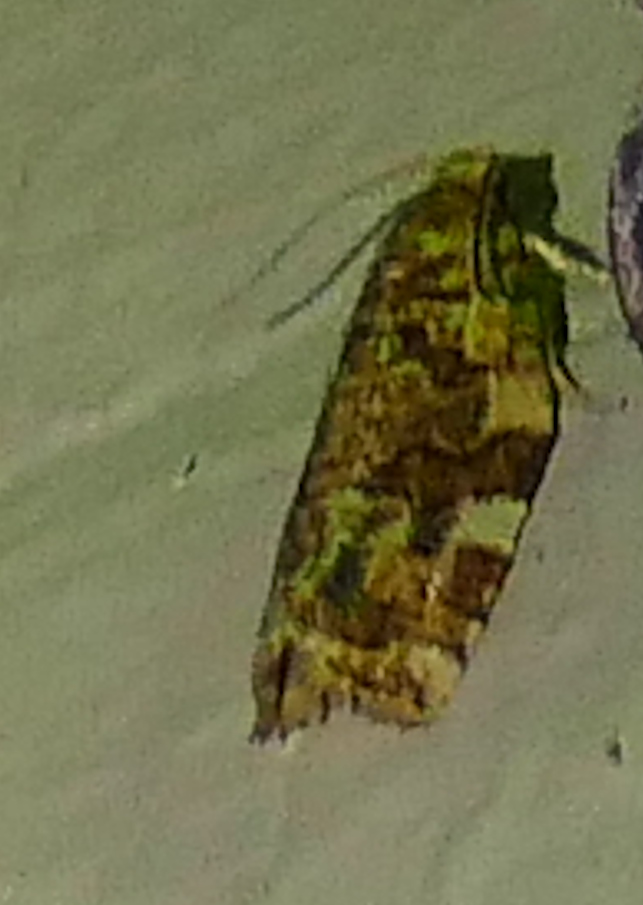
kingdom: Animalia
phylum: Arthropoda
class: Insecta
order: Lepidoptera
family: Tortricidae
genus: Archips
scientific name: Archips argyrospila
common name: Fruit-tree leafroller moth
